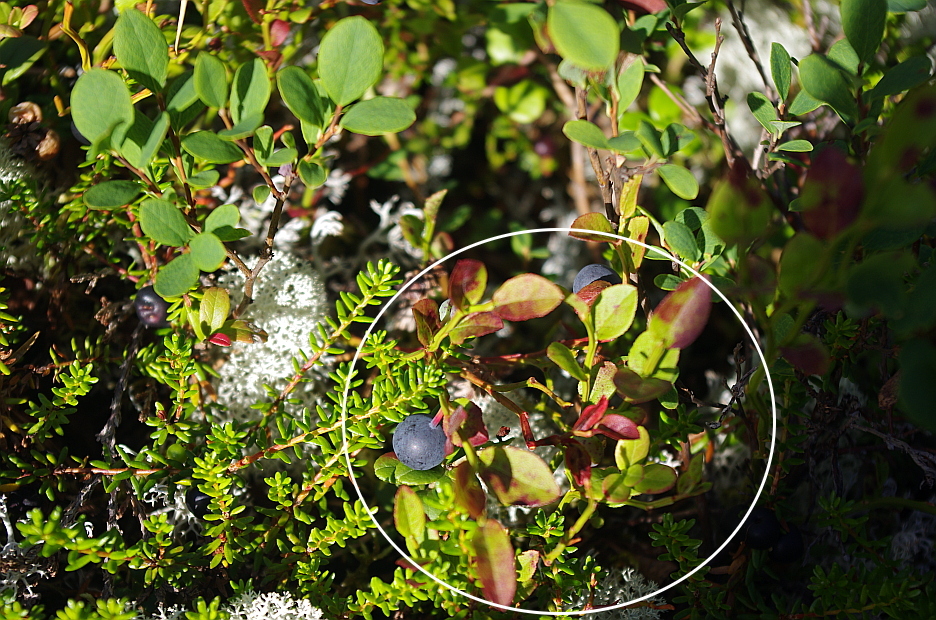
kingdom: Plantae
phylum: Tracheophyta
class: Magnoliopsida
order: Ericales
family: Ericaceae
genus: Vaccinium
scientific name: Vaccinium myrtillus
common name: Bilberry
